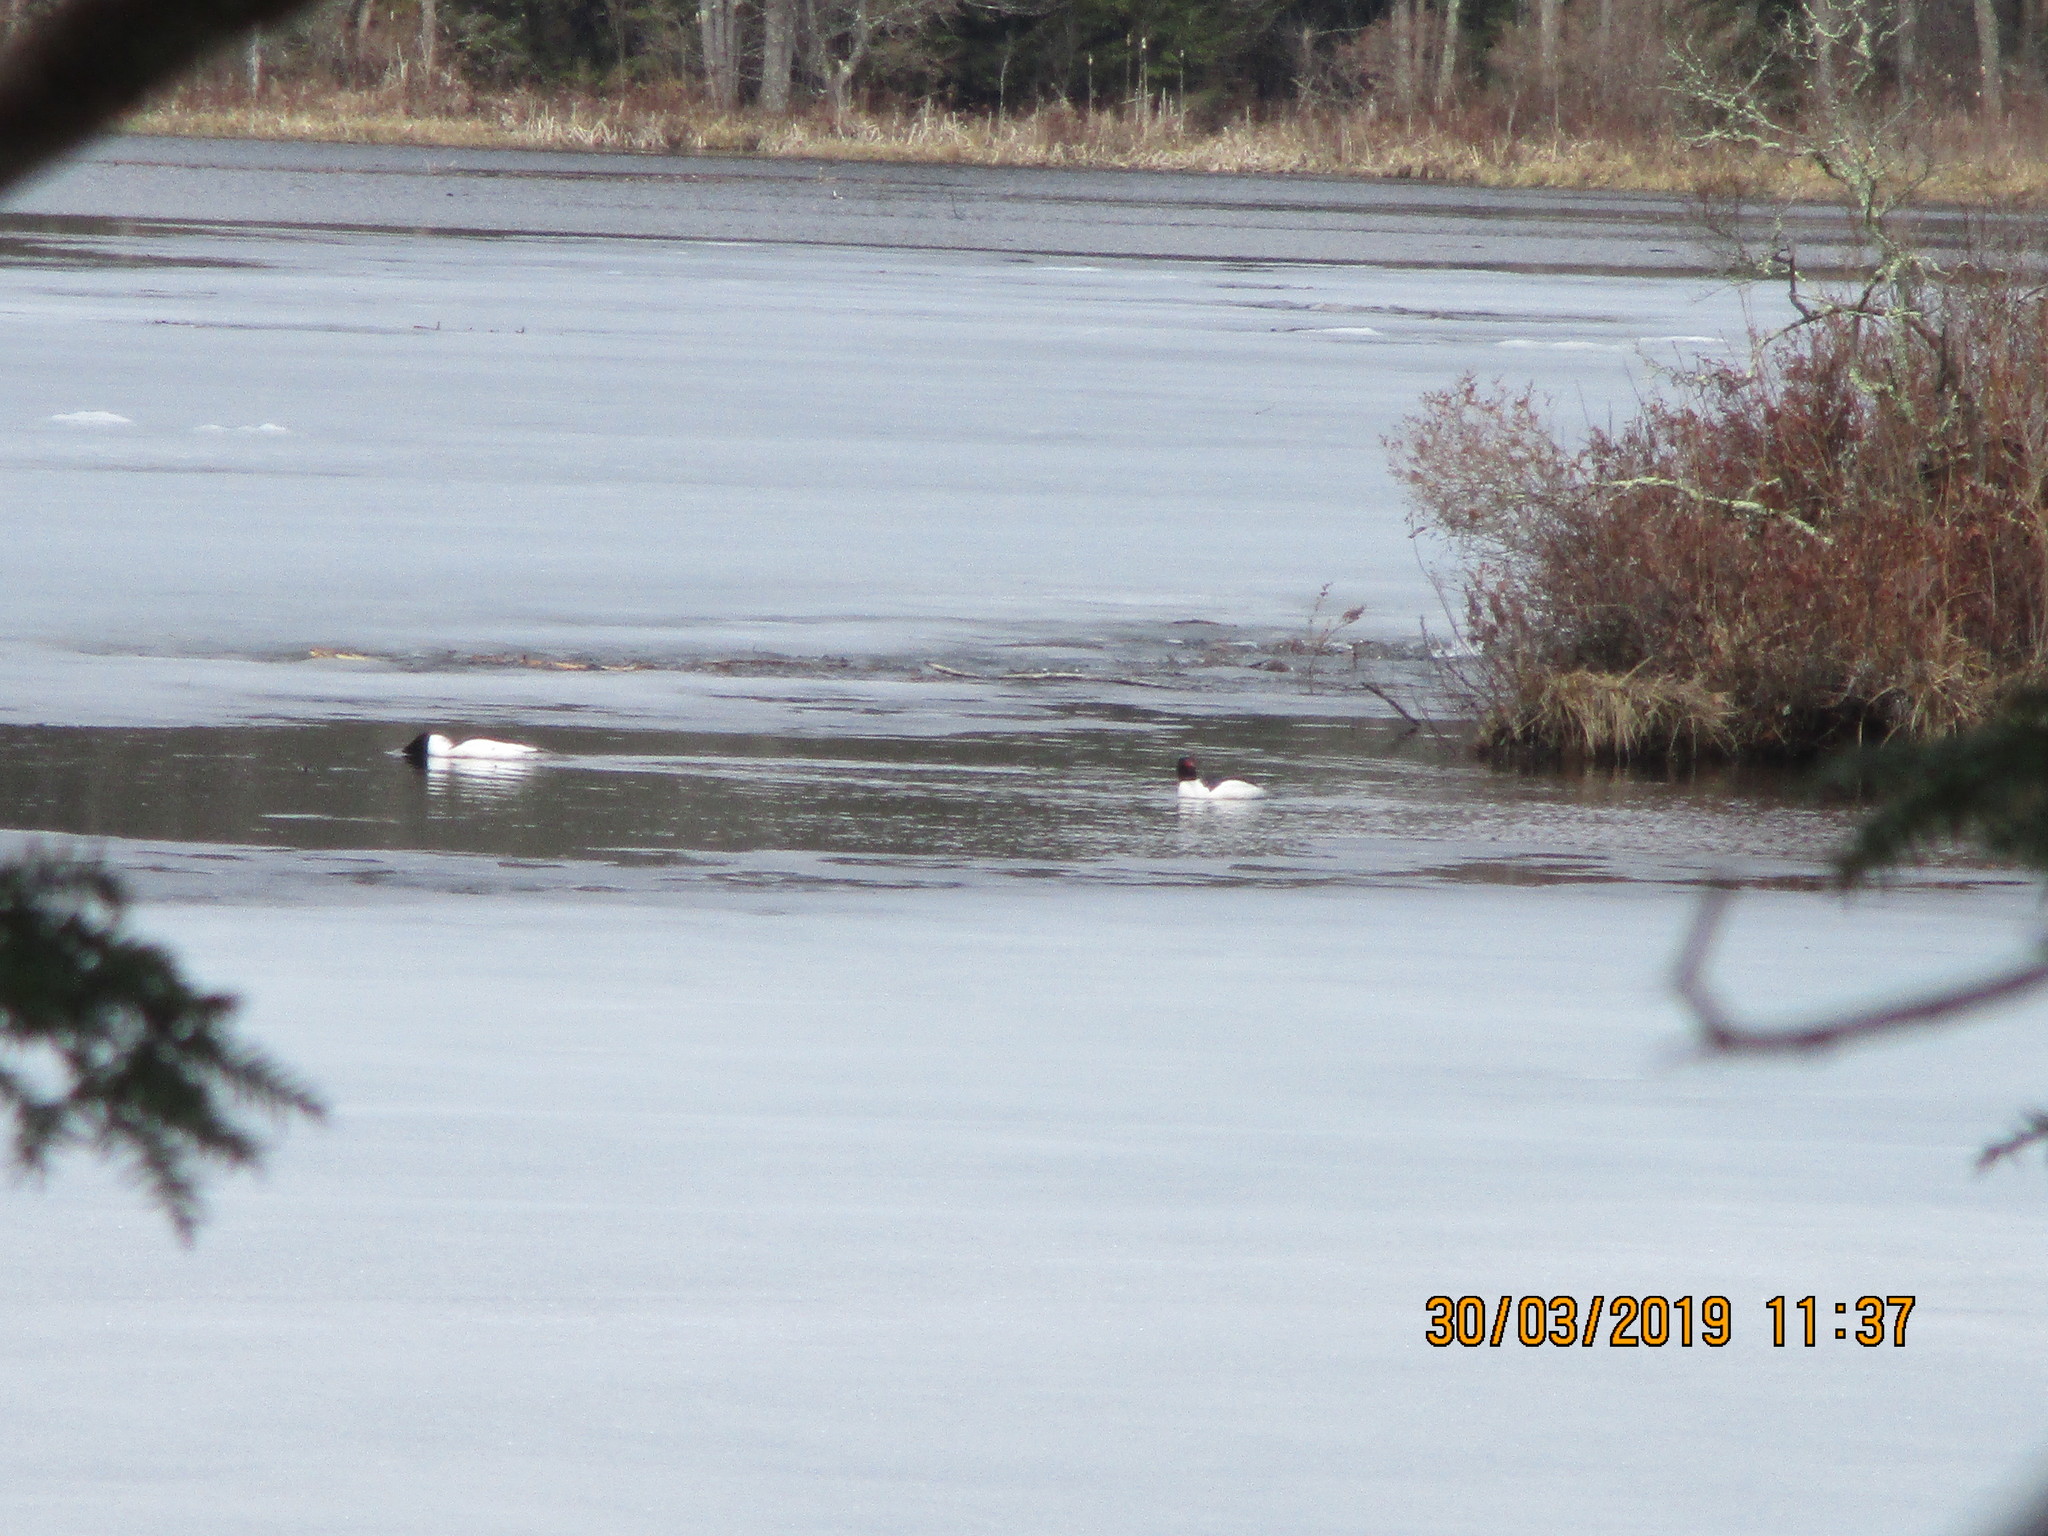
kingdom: Animalia
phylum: Chordata
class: Aves
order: Anseriformes
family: Anatidae
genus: Mergus
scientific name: Mergus merganser
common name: Common merganser
